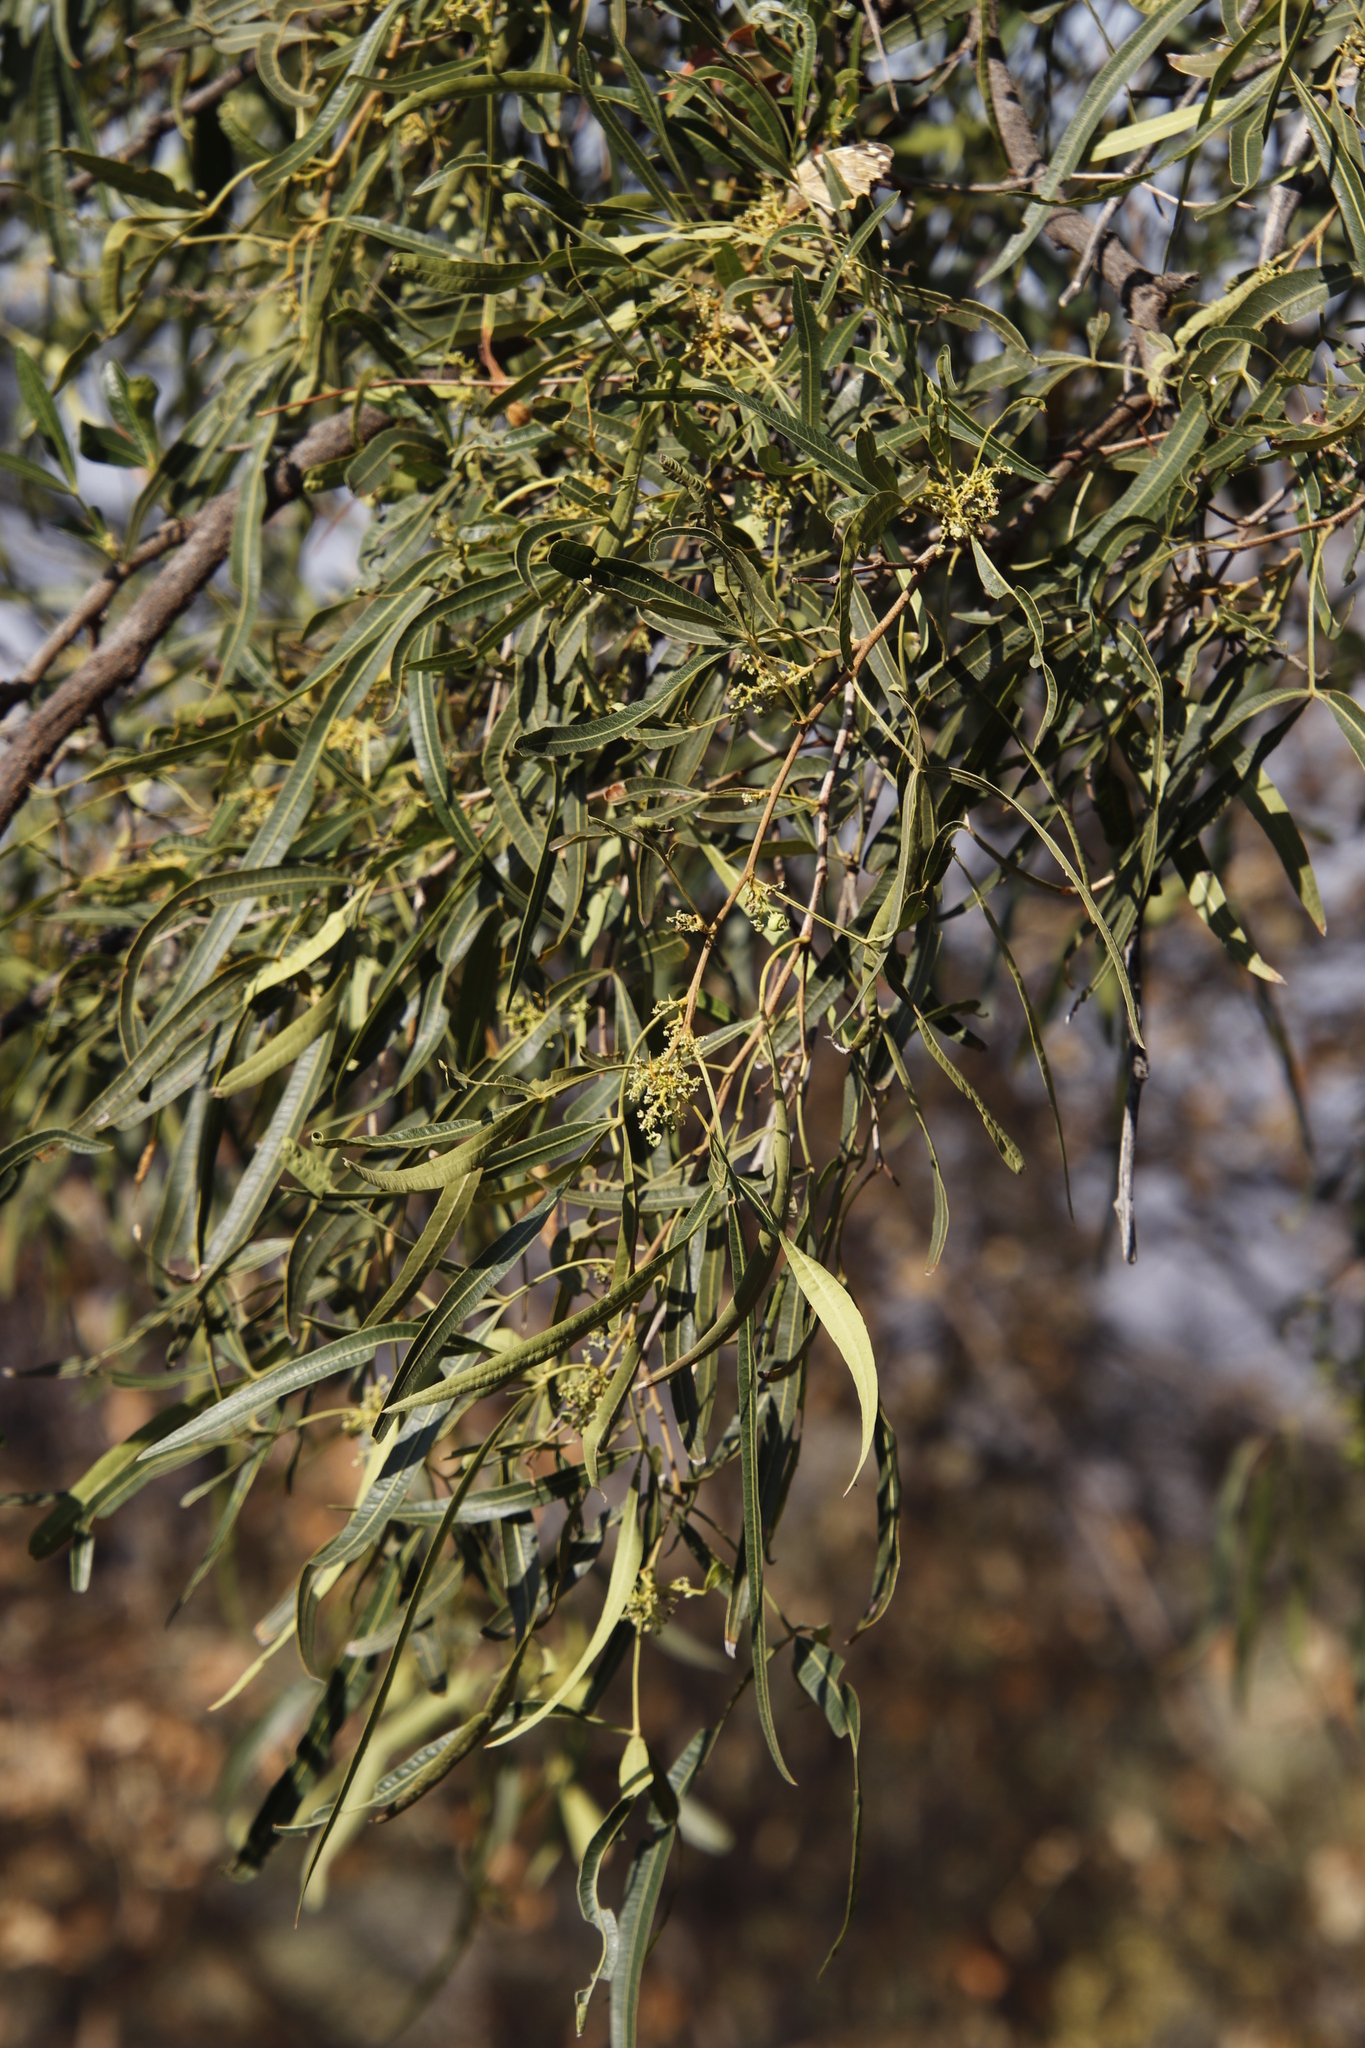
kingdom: Plantae
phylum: Tracheophyta
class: Magnoliopsida
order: Sapindales
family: Anacardiaceae
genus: Searsia
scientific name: Searsia lancea
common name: Cashew
